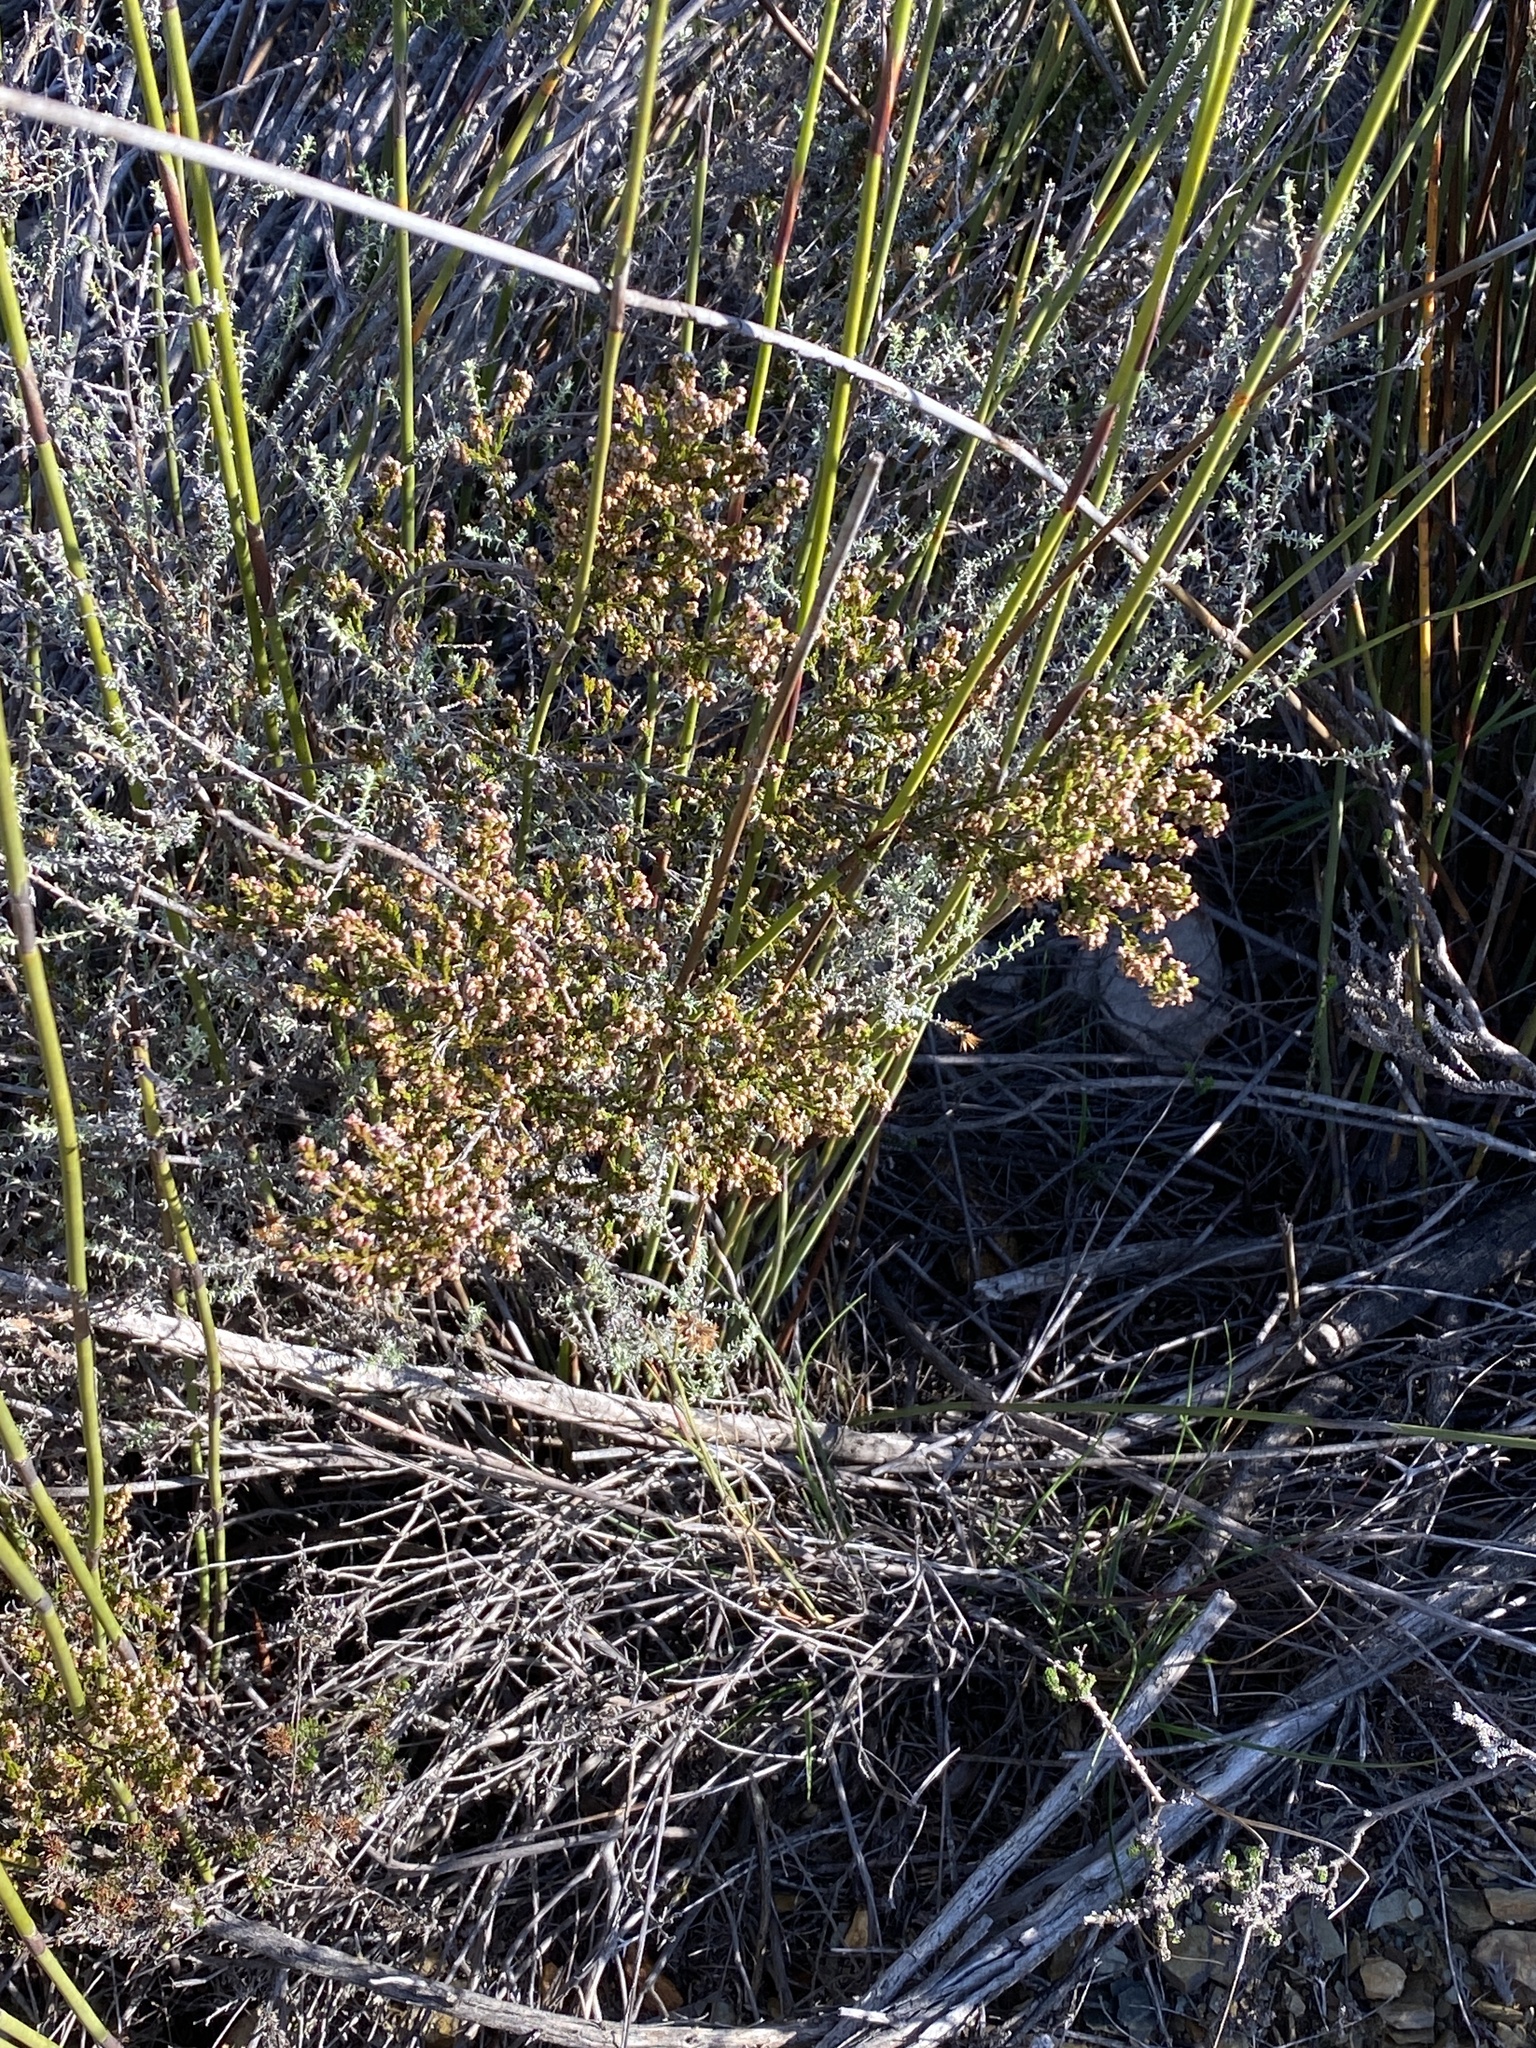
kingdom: Plantae
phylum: Tracheophyta
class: Magnoliopsida
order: Ericales
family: Ericaceae
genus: Erica
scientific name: Erica rosacea
